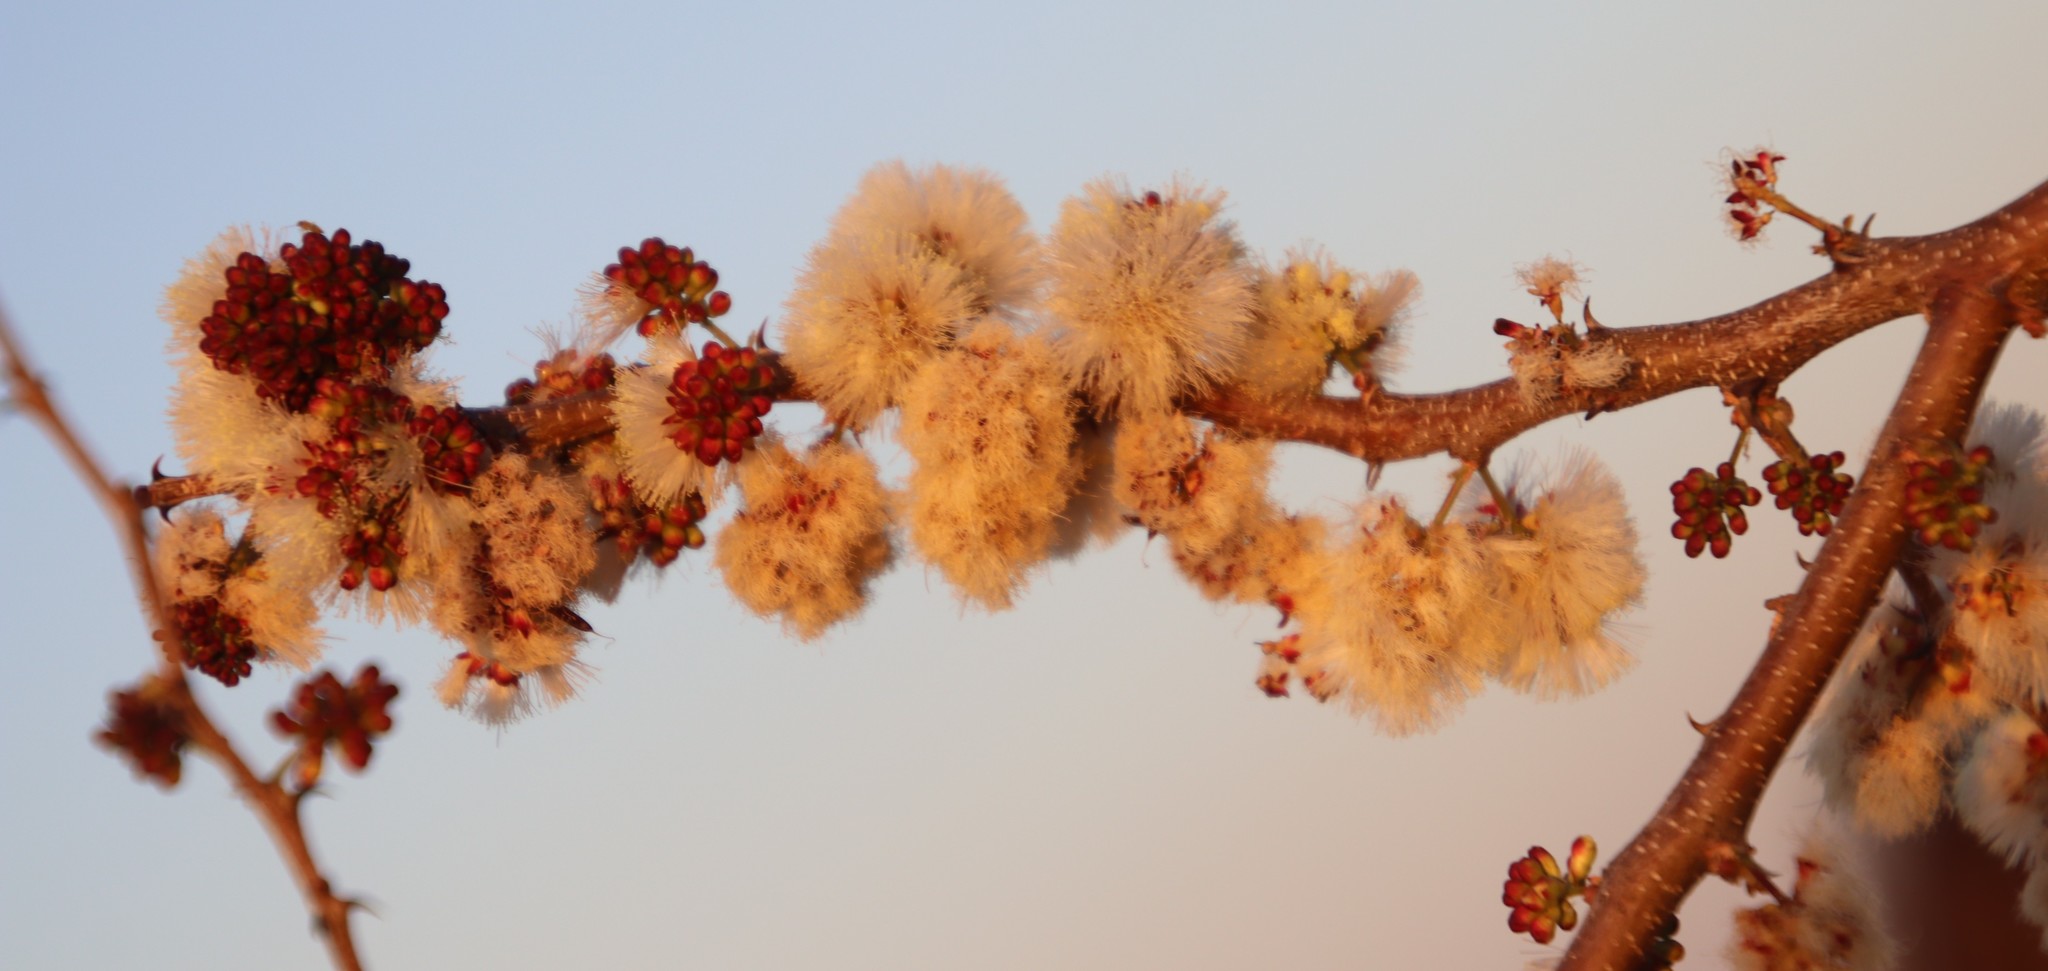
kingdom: Plantae
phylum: Tracheophyta
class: Magnoliopsida
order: Fabales
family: Fabaceae
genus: Senegalia
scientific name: Senegalia mellifera
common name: Hookthorn
